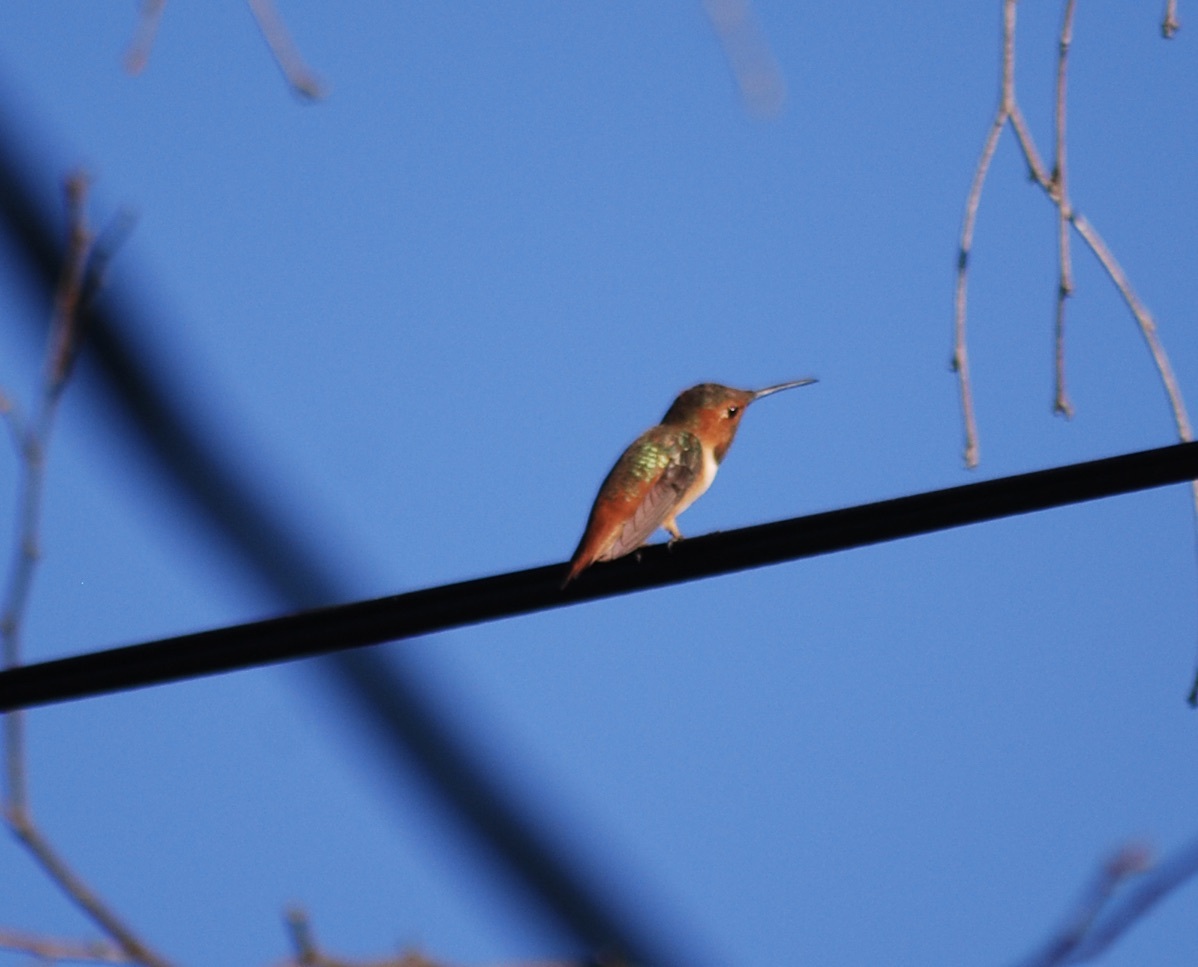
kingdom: Animalia
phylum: Chordata
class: Aves
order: Apodiformes
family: Trochilidae
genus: Selasphorus
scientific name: Selasphorus sasin
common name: Allen's hummingbird
